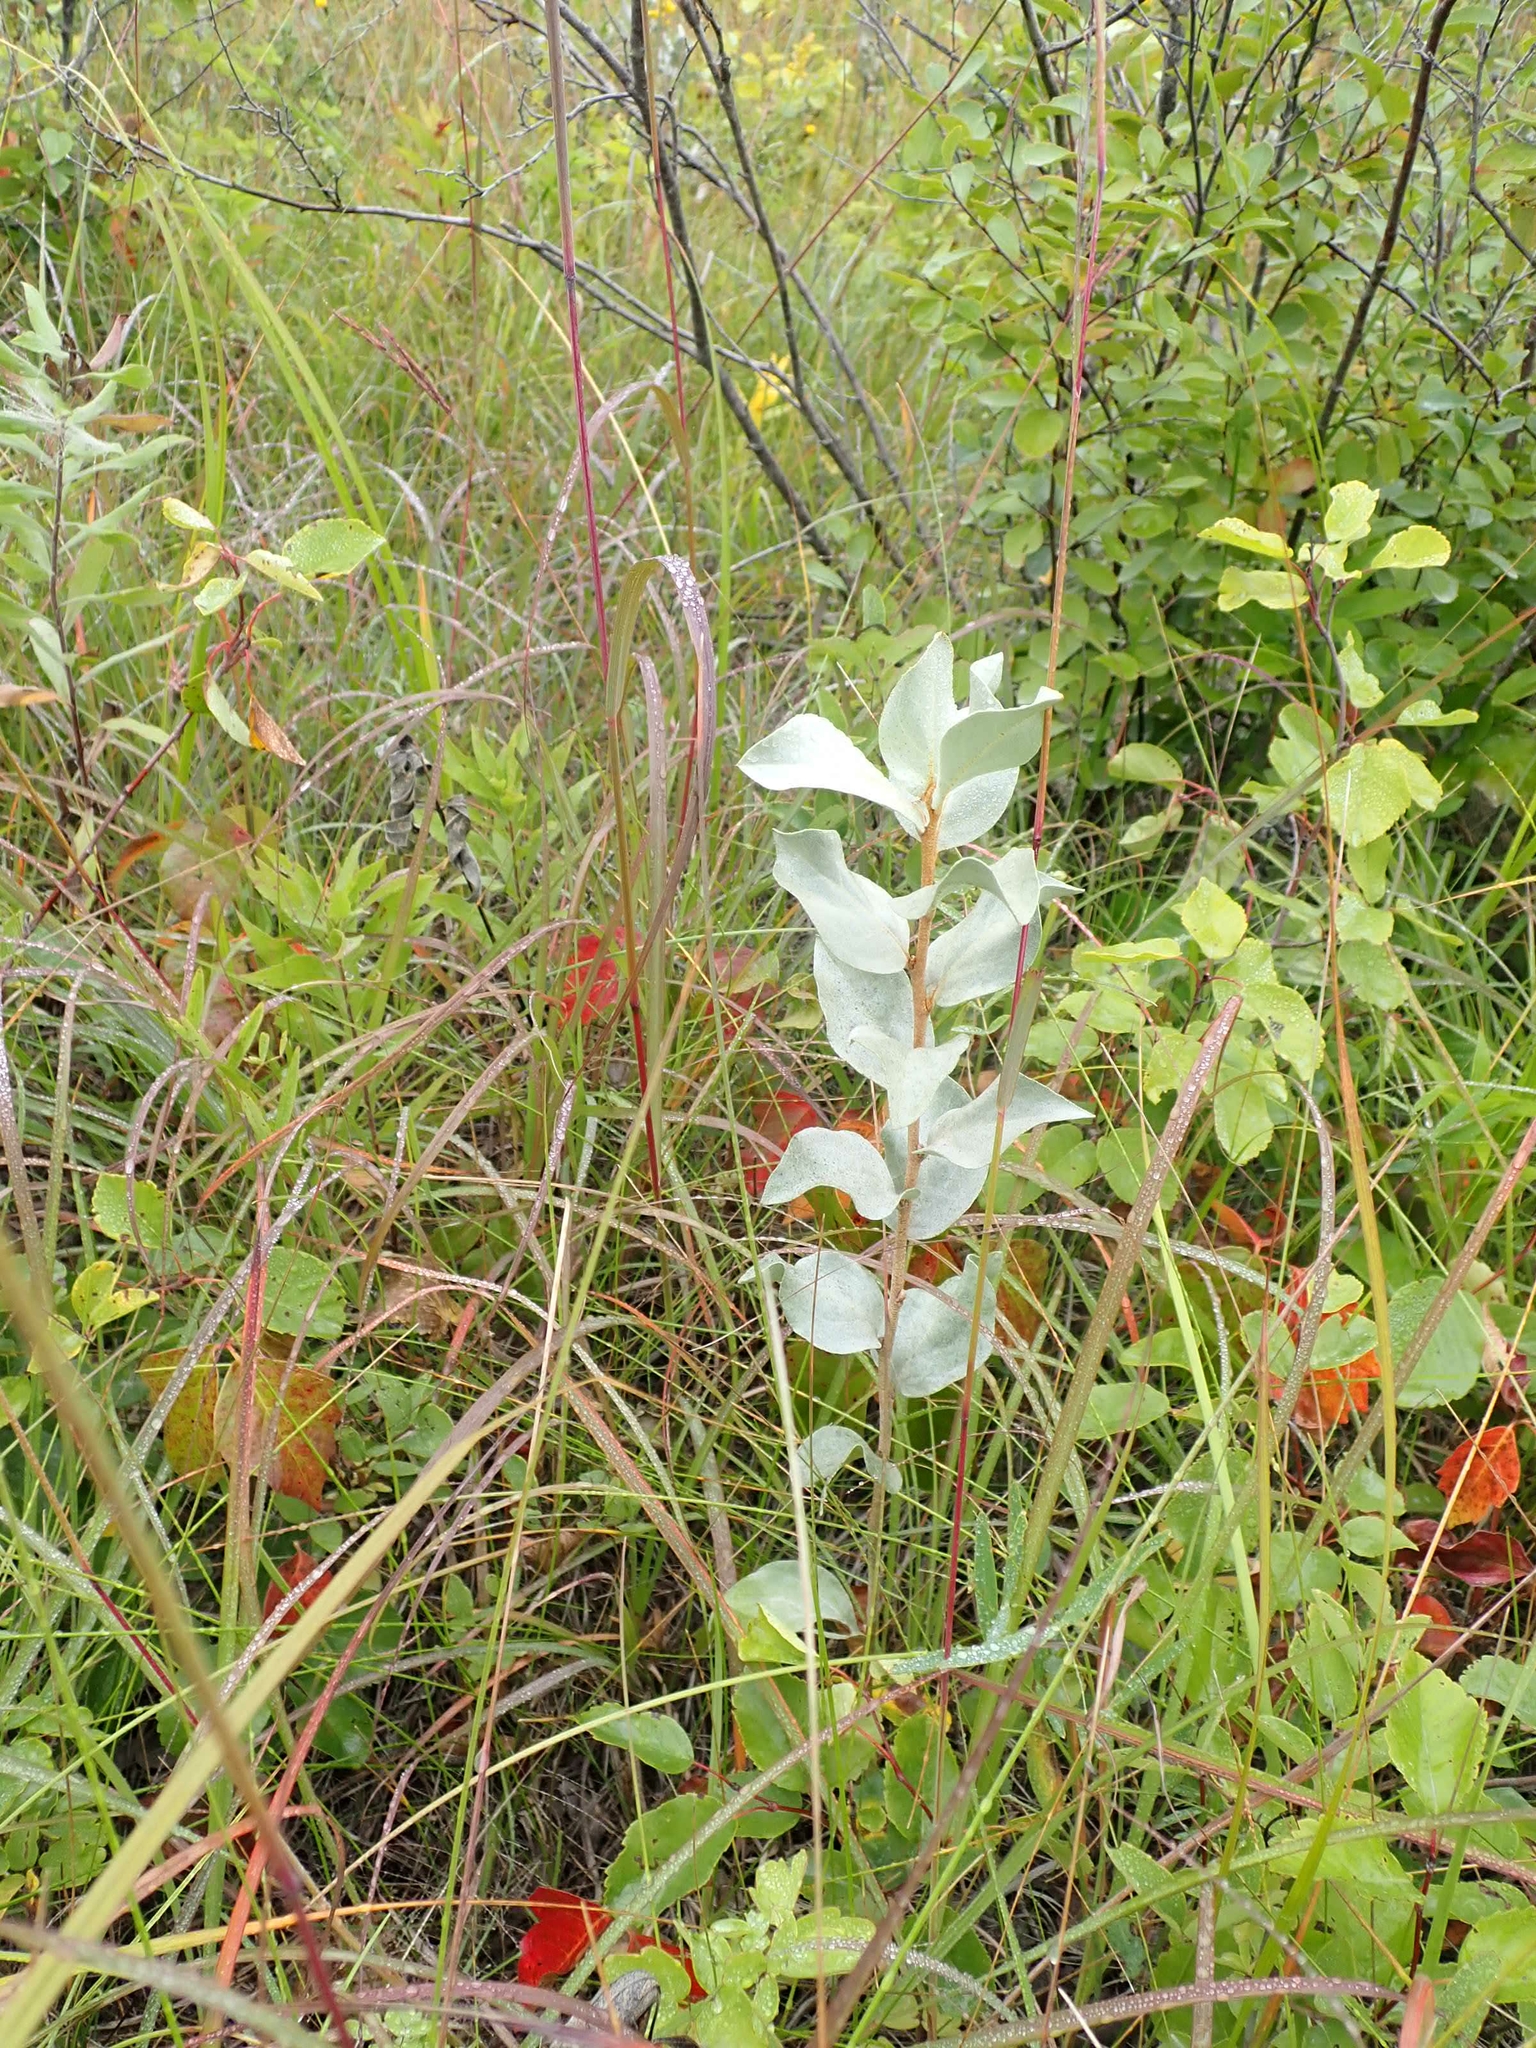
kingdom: Plantae
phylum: Tracheophyta
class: Magnoliopsida
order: Rosales
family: Elaeagnaceae
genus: Elaeagnus
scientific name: Elaeagnus commutata
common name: Silverberry
